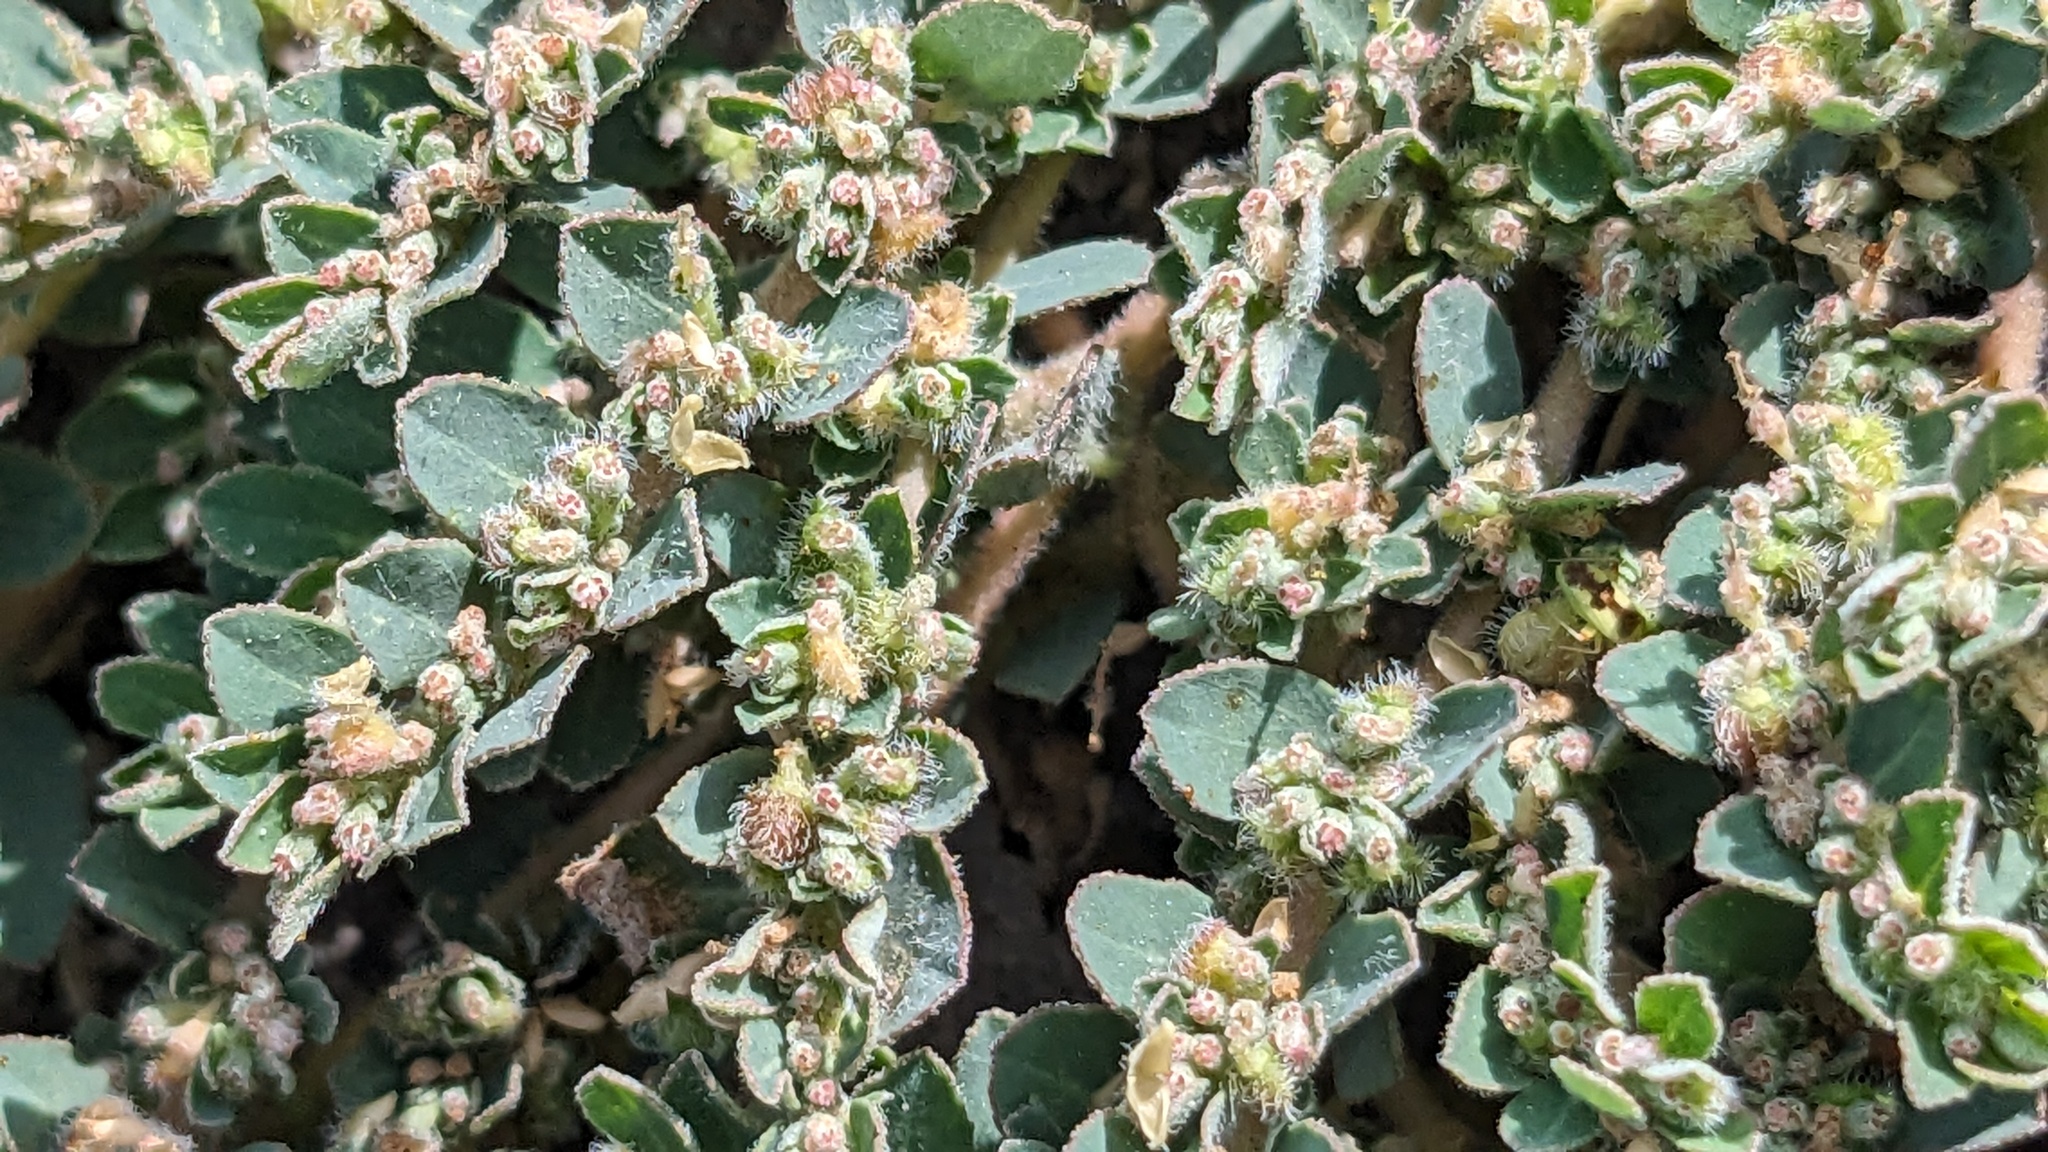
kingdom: Plantae
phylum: Tracheophyta
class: Magnoliopsida
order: Malpighiales
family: Euphorbiaceae
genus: Euphorbia
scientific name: Euphorbia prostrata
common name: Prostrate sandmat
